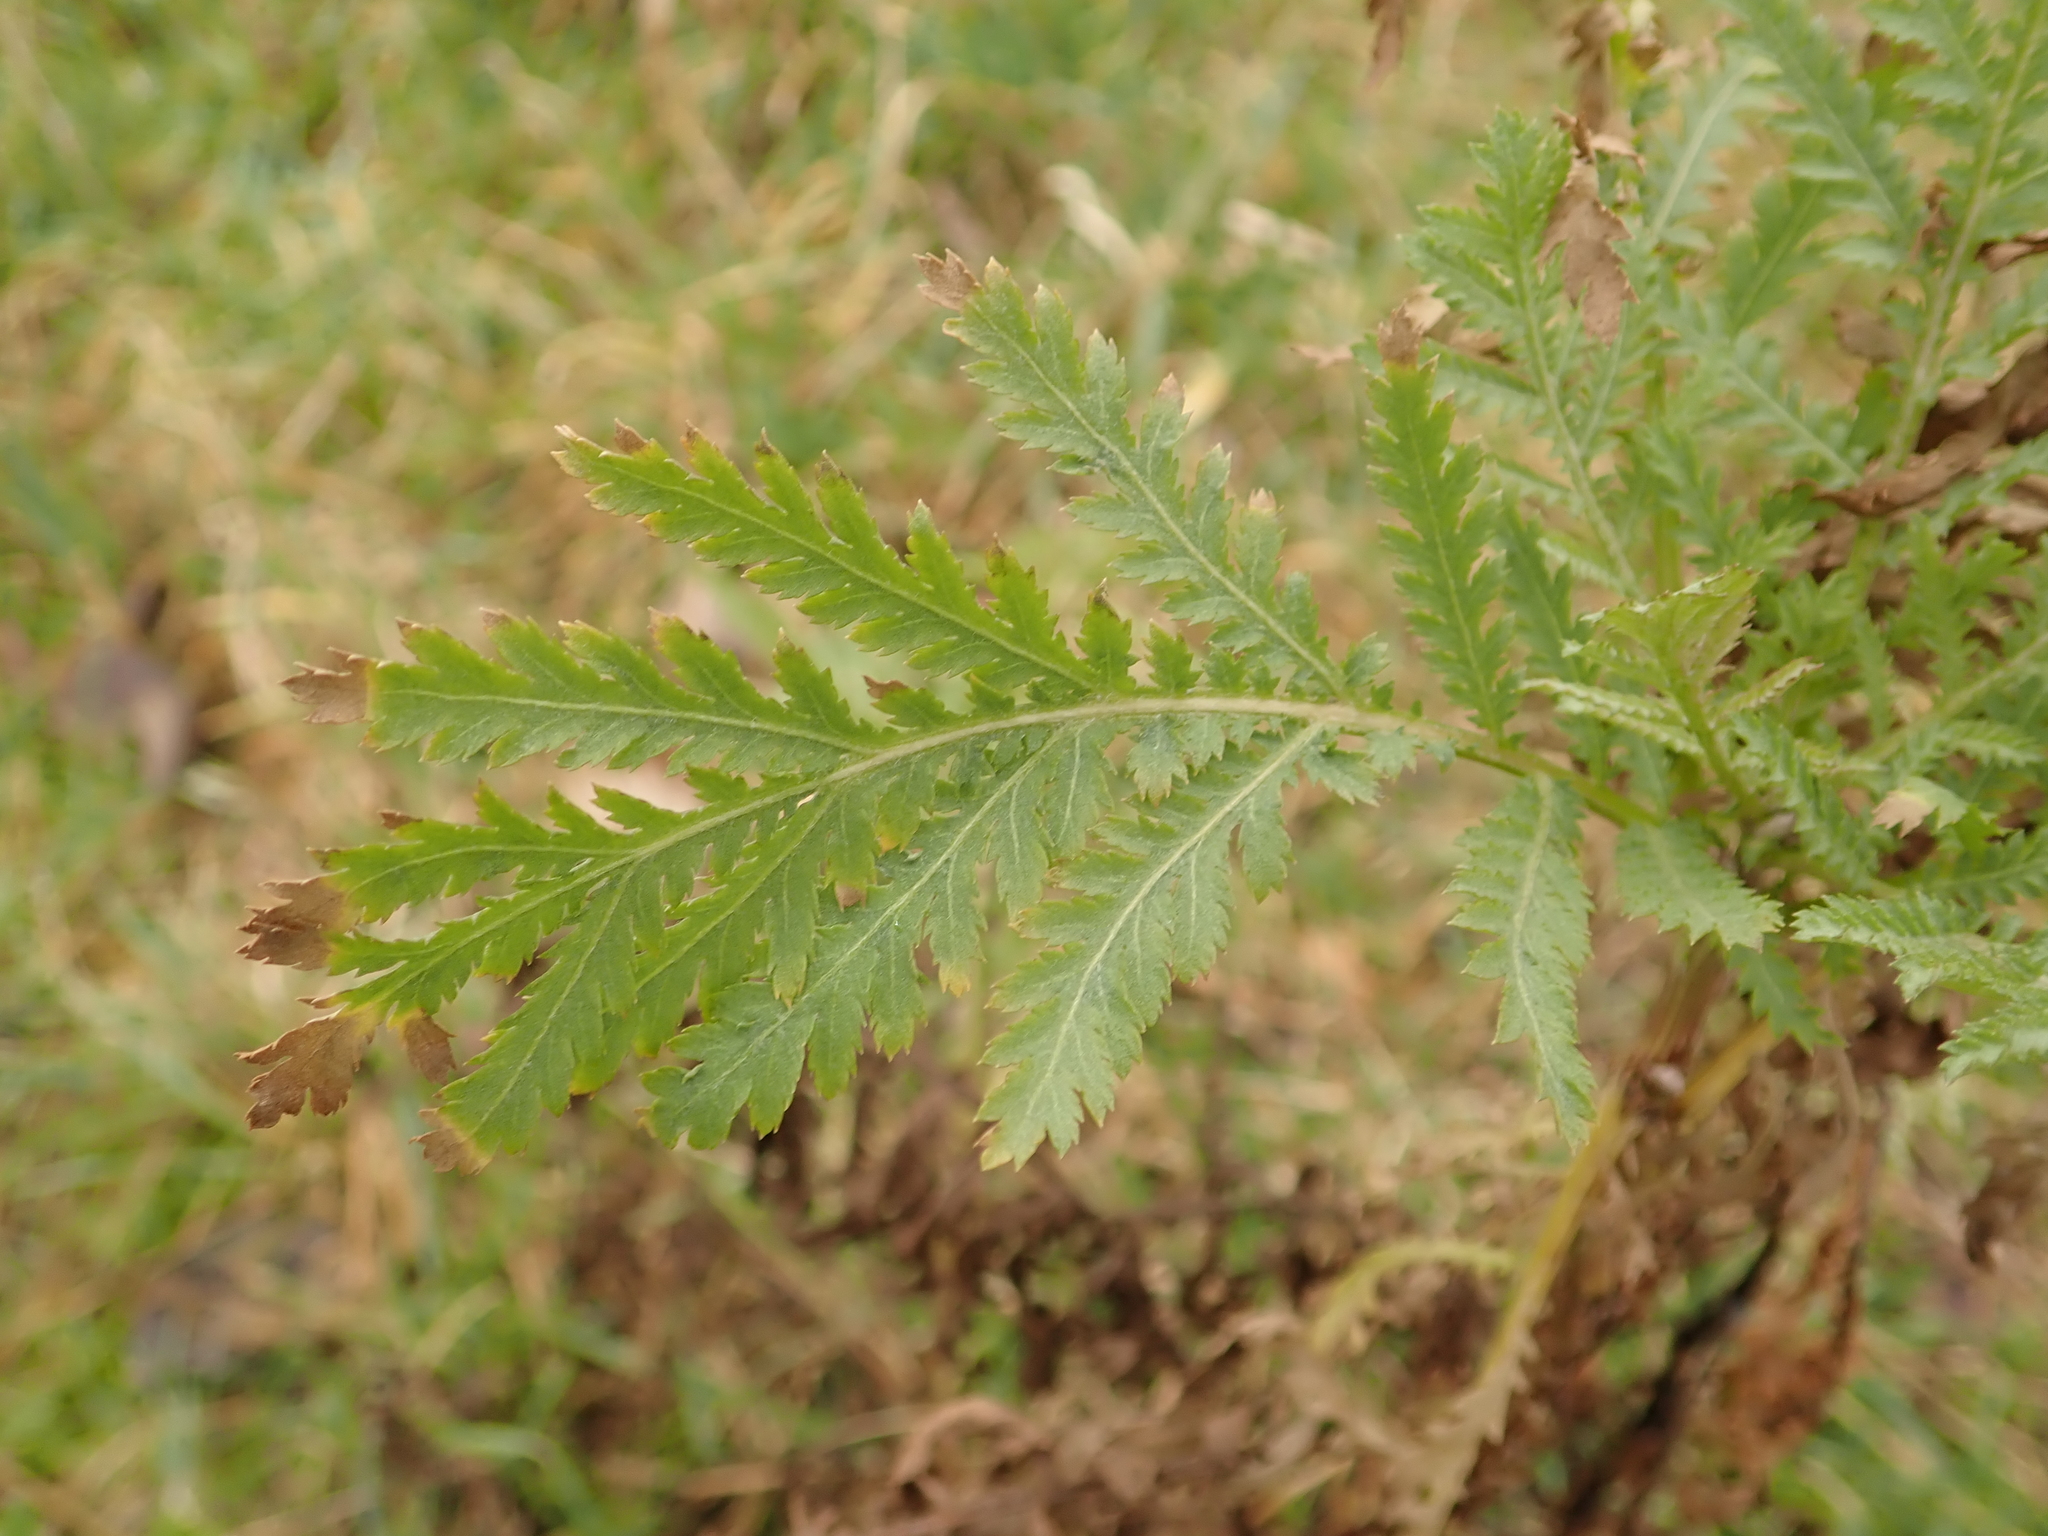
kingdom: Plantae
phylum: Tracheophyta
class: Magnoliopsida
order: Asterales
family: Asteraceae
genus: Tanacetum
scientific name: Tanacetum vulgare
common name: Common tansy
